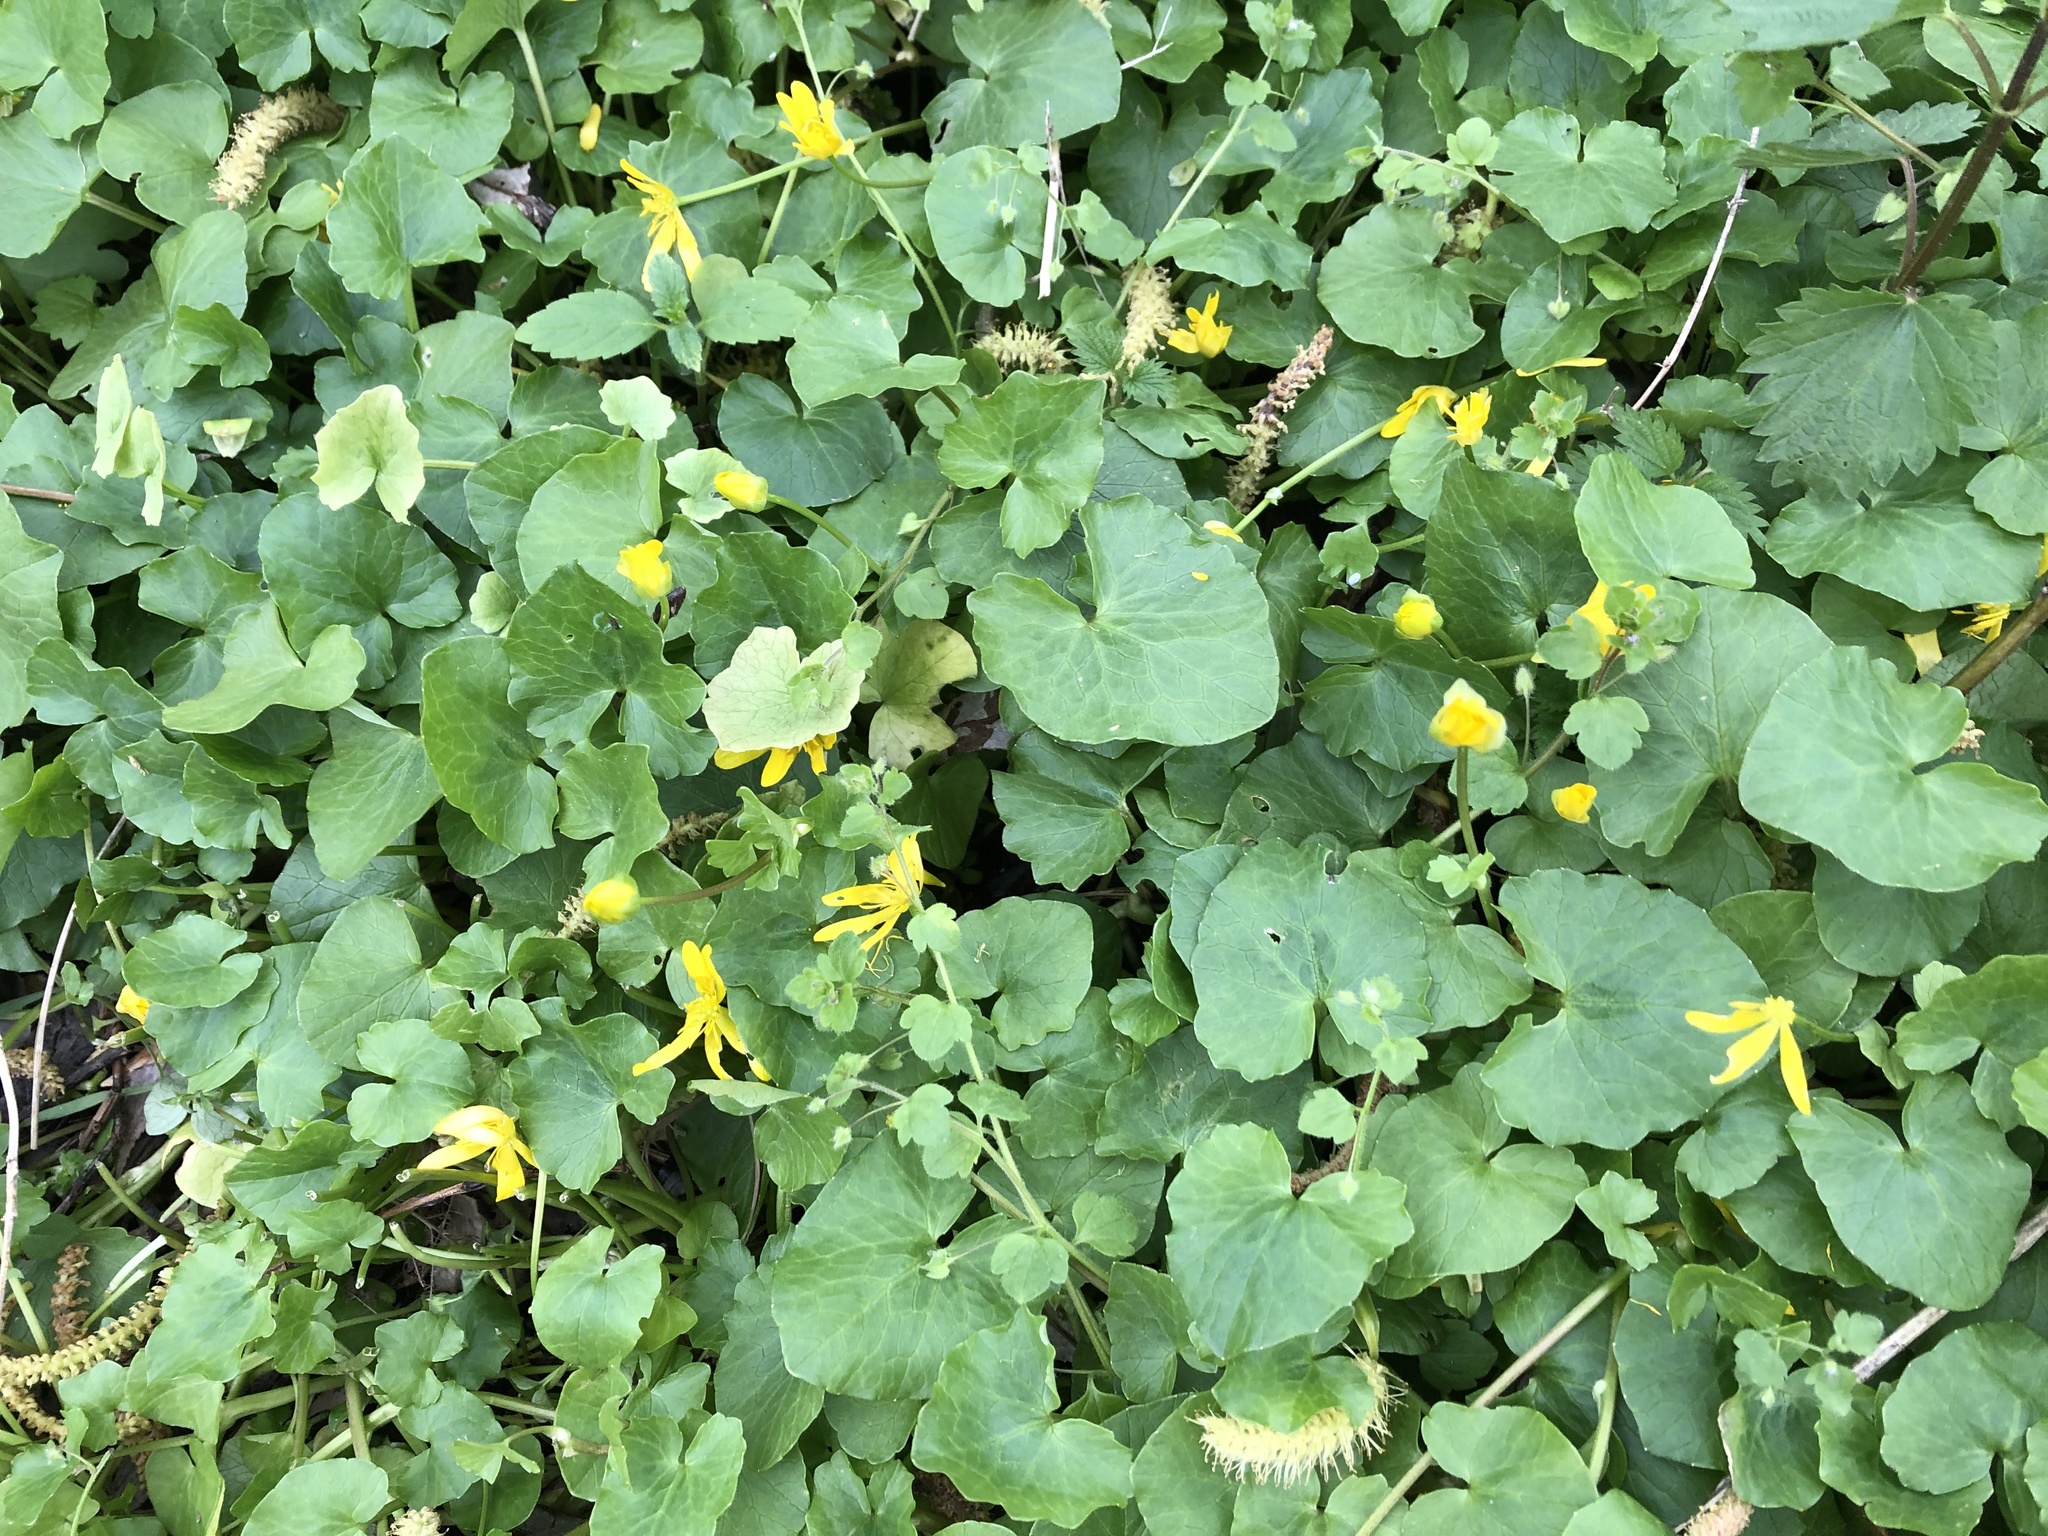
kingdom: Plantae
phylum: Tracheophyta
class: Magnoliopsida
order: Ranunculales
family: Ranunculaceae
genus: Ficaria
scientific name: Ficaria verna
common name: Lesser celandine
